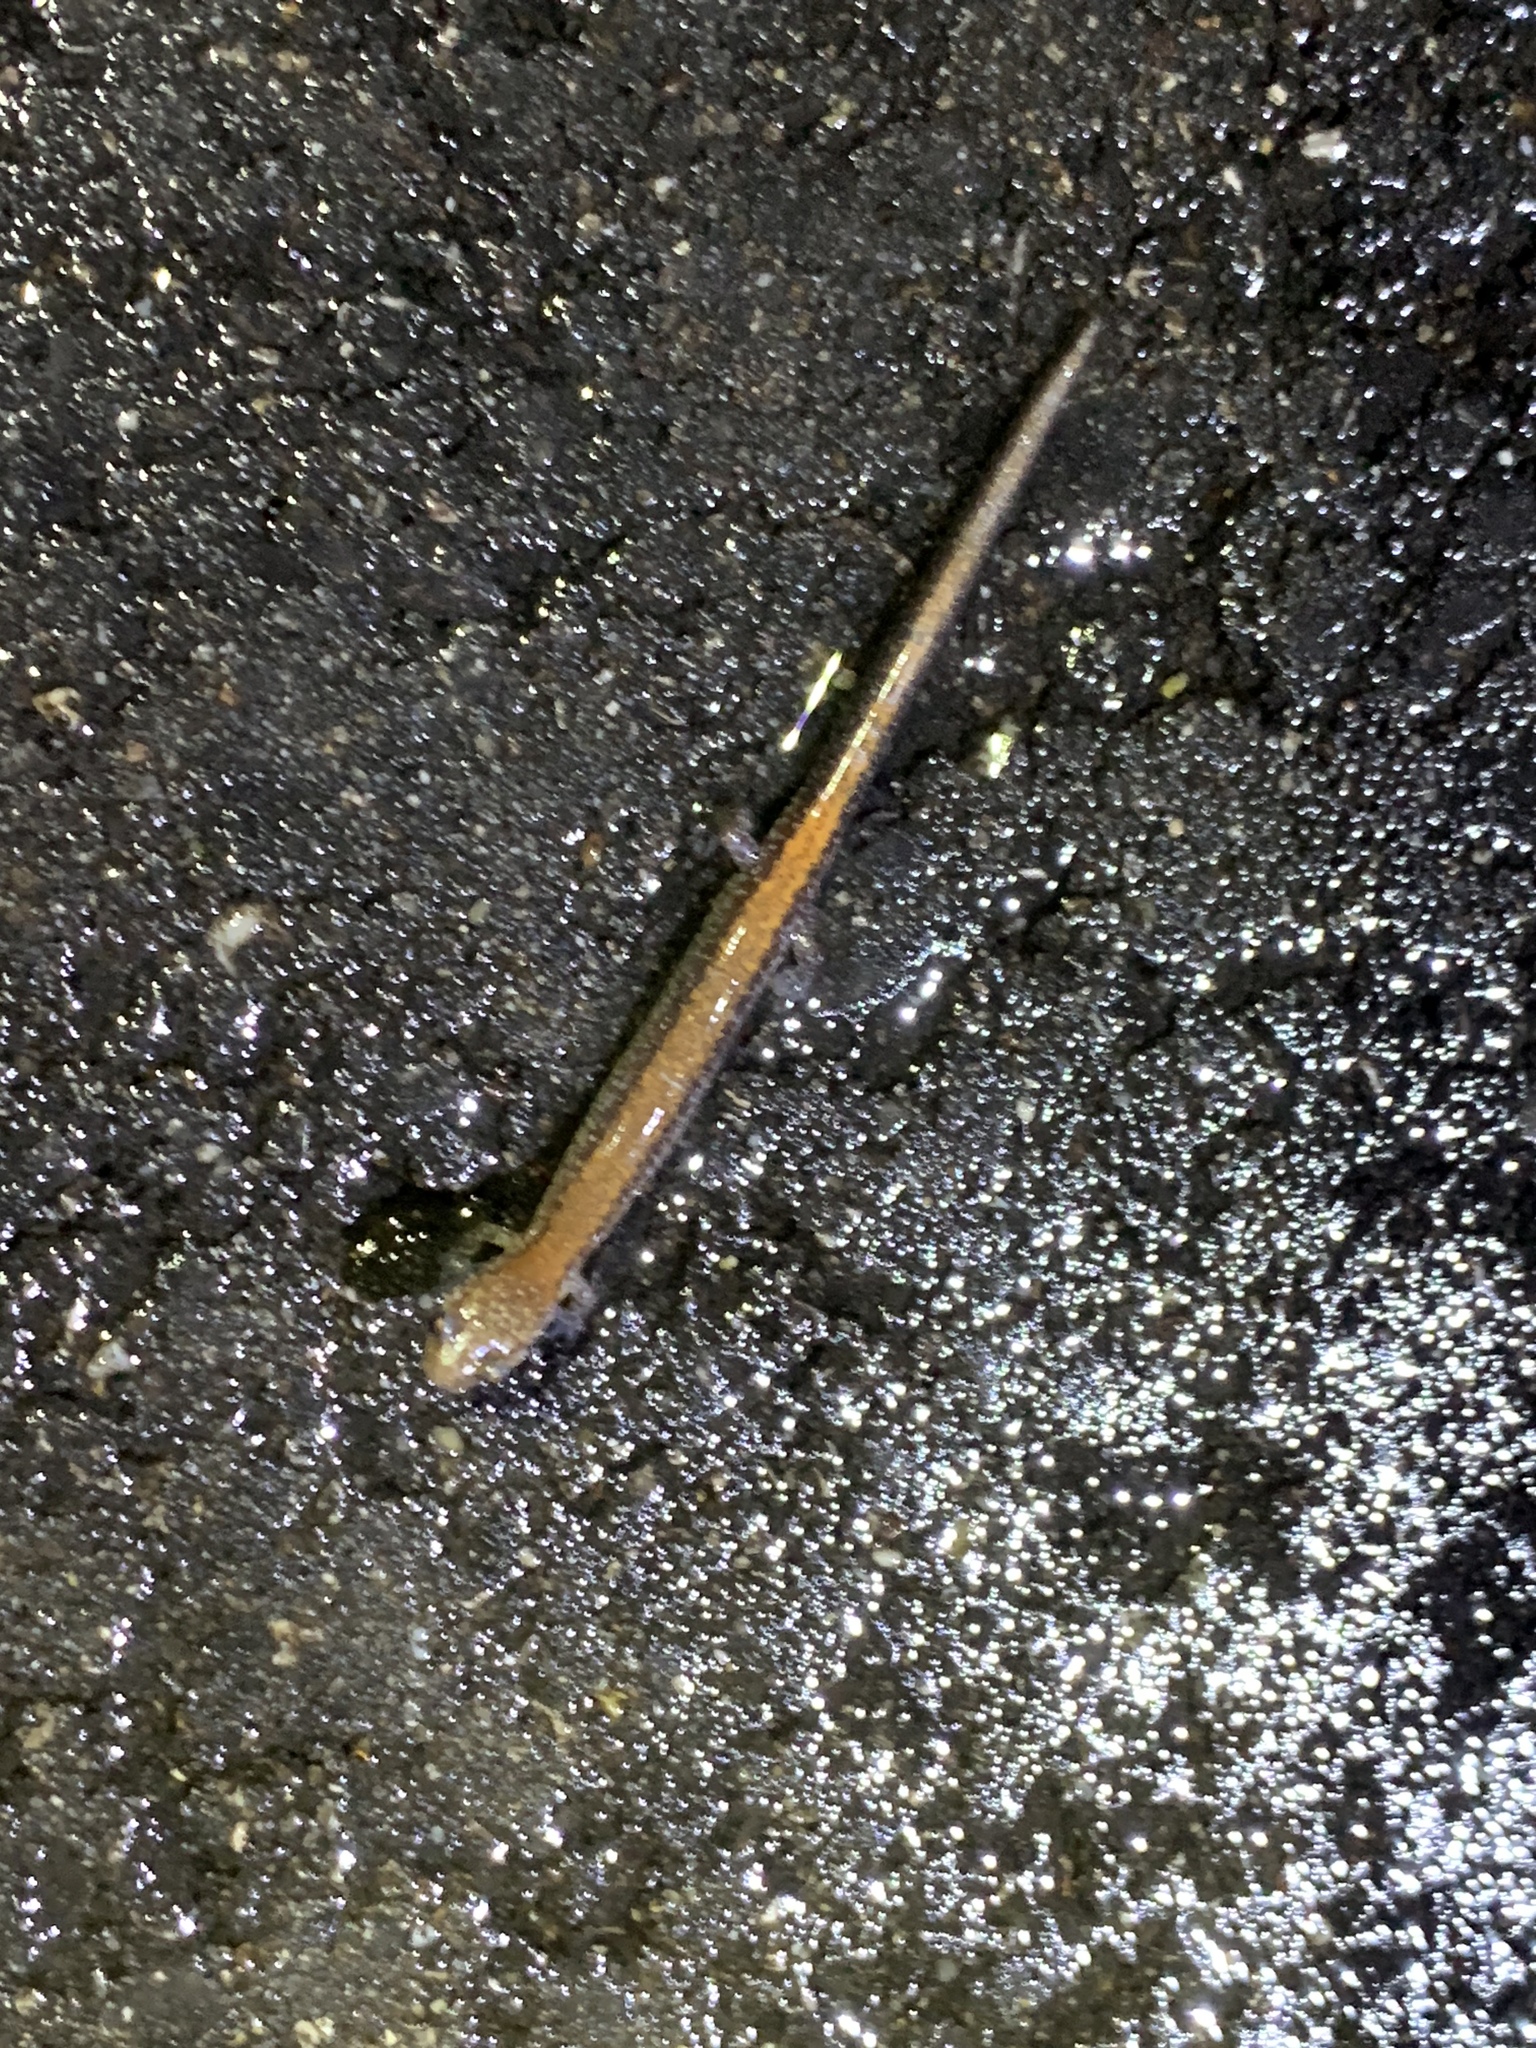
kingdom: Animalia
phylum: Chordata
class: Amphibia
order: Caudata
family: Plethodontidae
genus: Plethodon
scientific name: Plethodon cinereus
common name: Redback salamander
